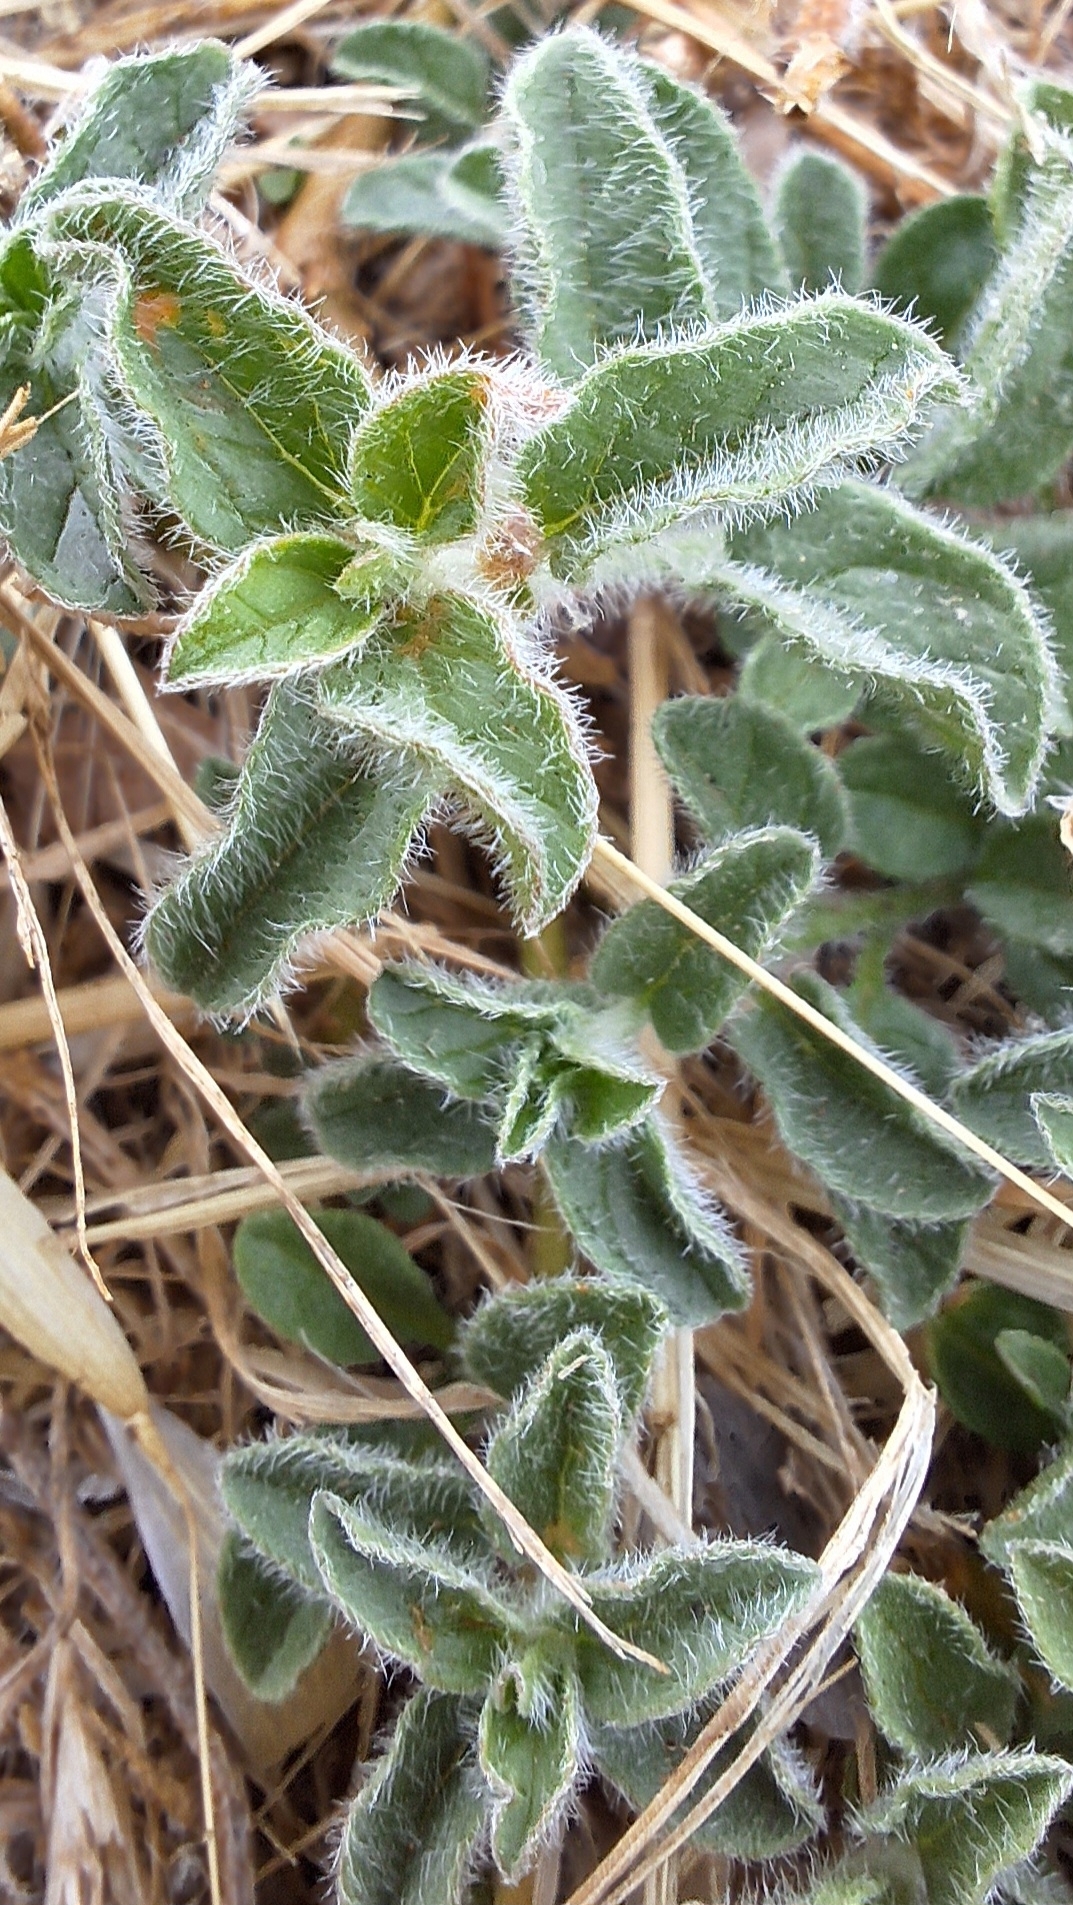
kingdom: Plantae
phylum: Tracheophyta
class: Magnoliopsida
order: Solanales
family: Convolvulaceae
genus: Convolvulus
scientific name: Convolvulus sabatius
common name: Ground blue-convolvulus
